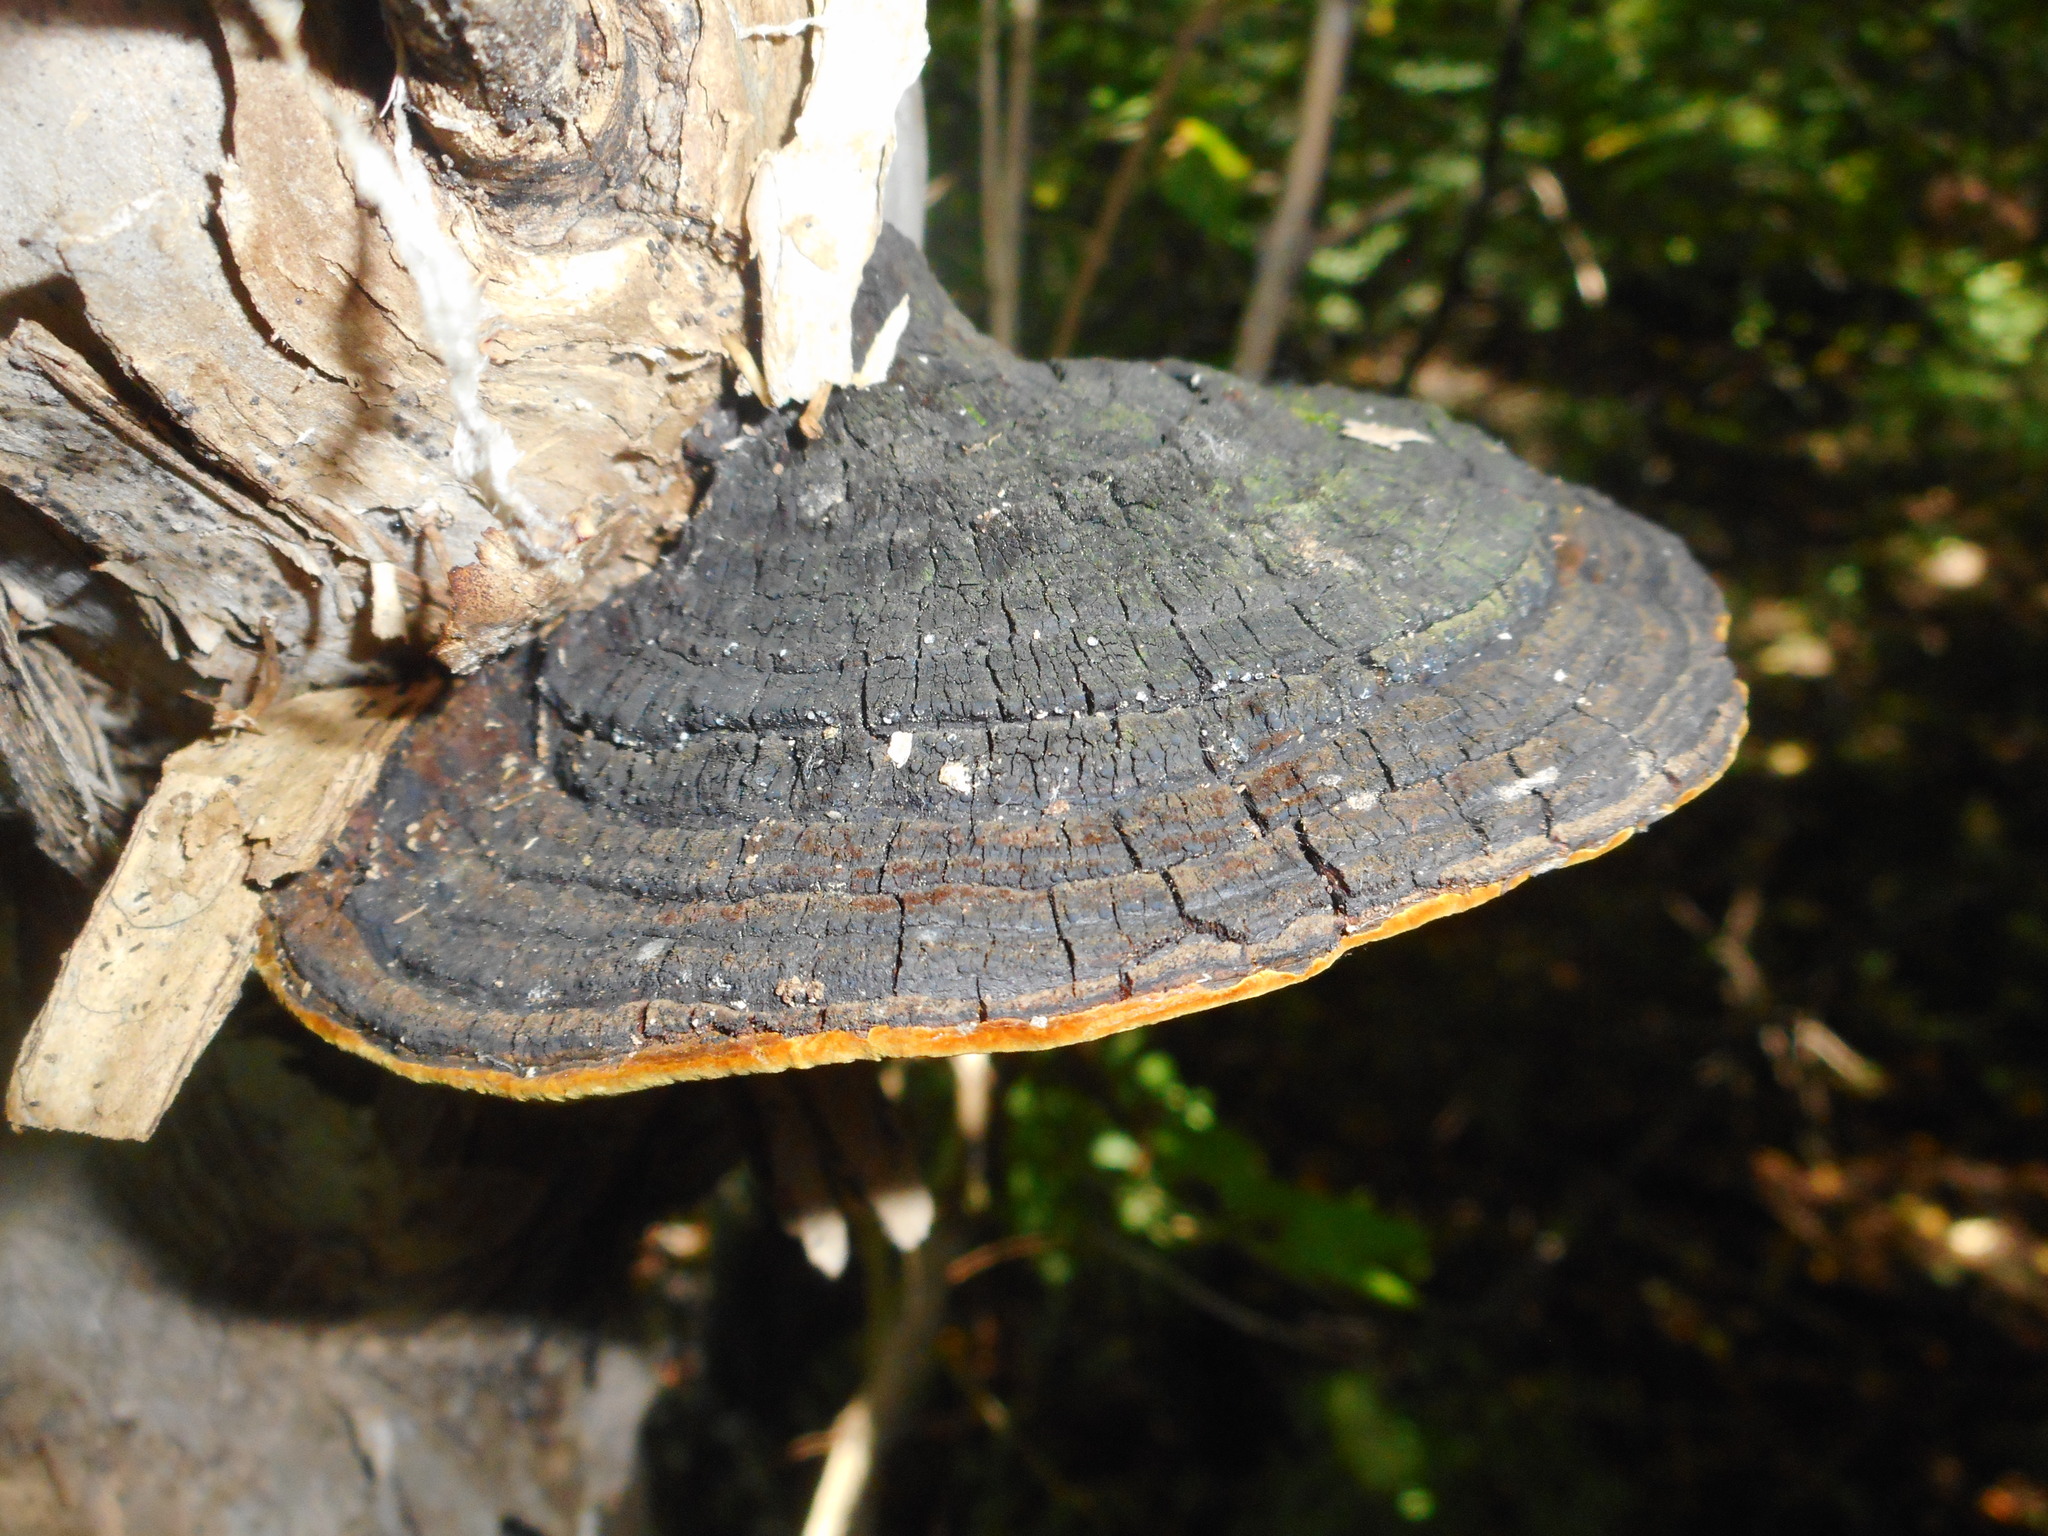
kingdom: Fungi
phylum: Basidiomycota
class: Agaricomycetes
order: Hymenochaetales
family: Hymenochaetaceae
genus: Sanghuangporus
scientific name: Sanghuangporus baumii
